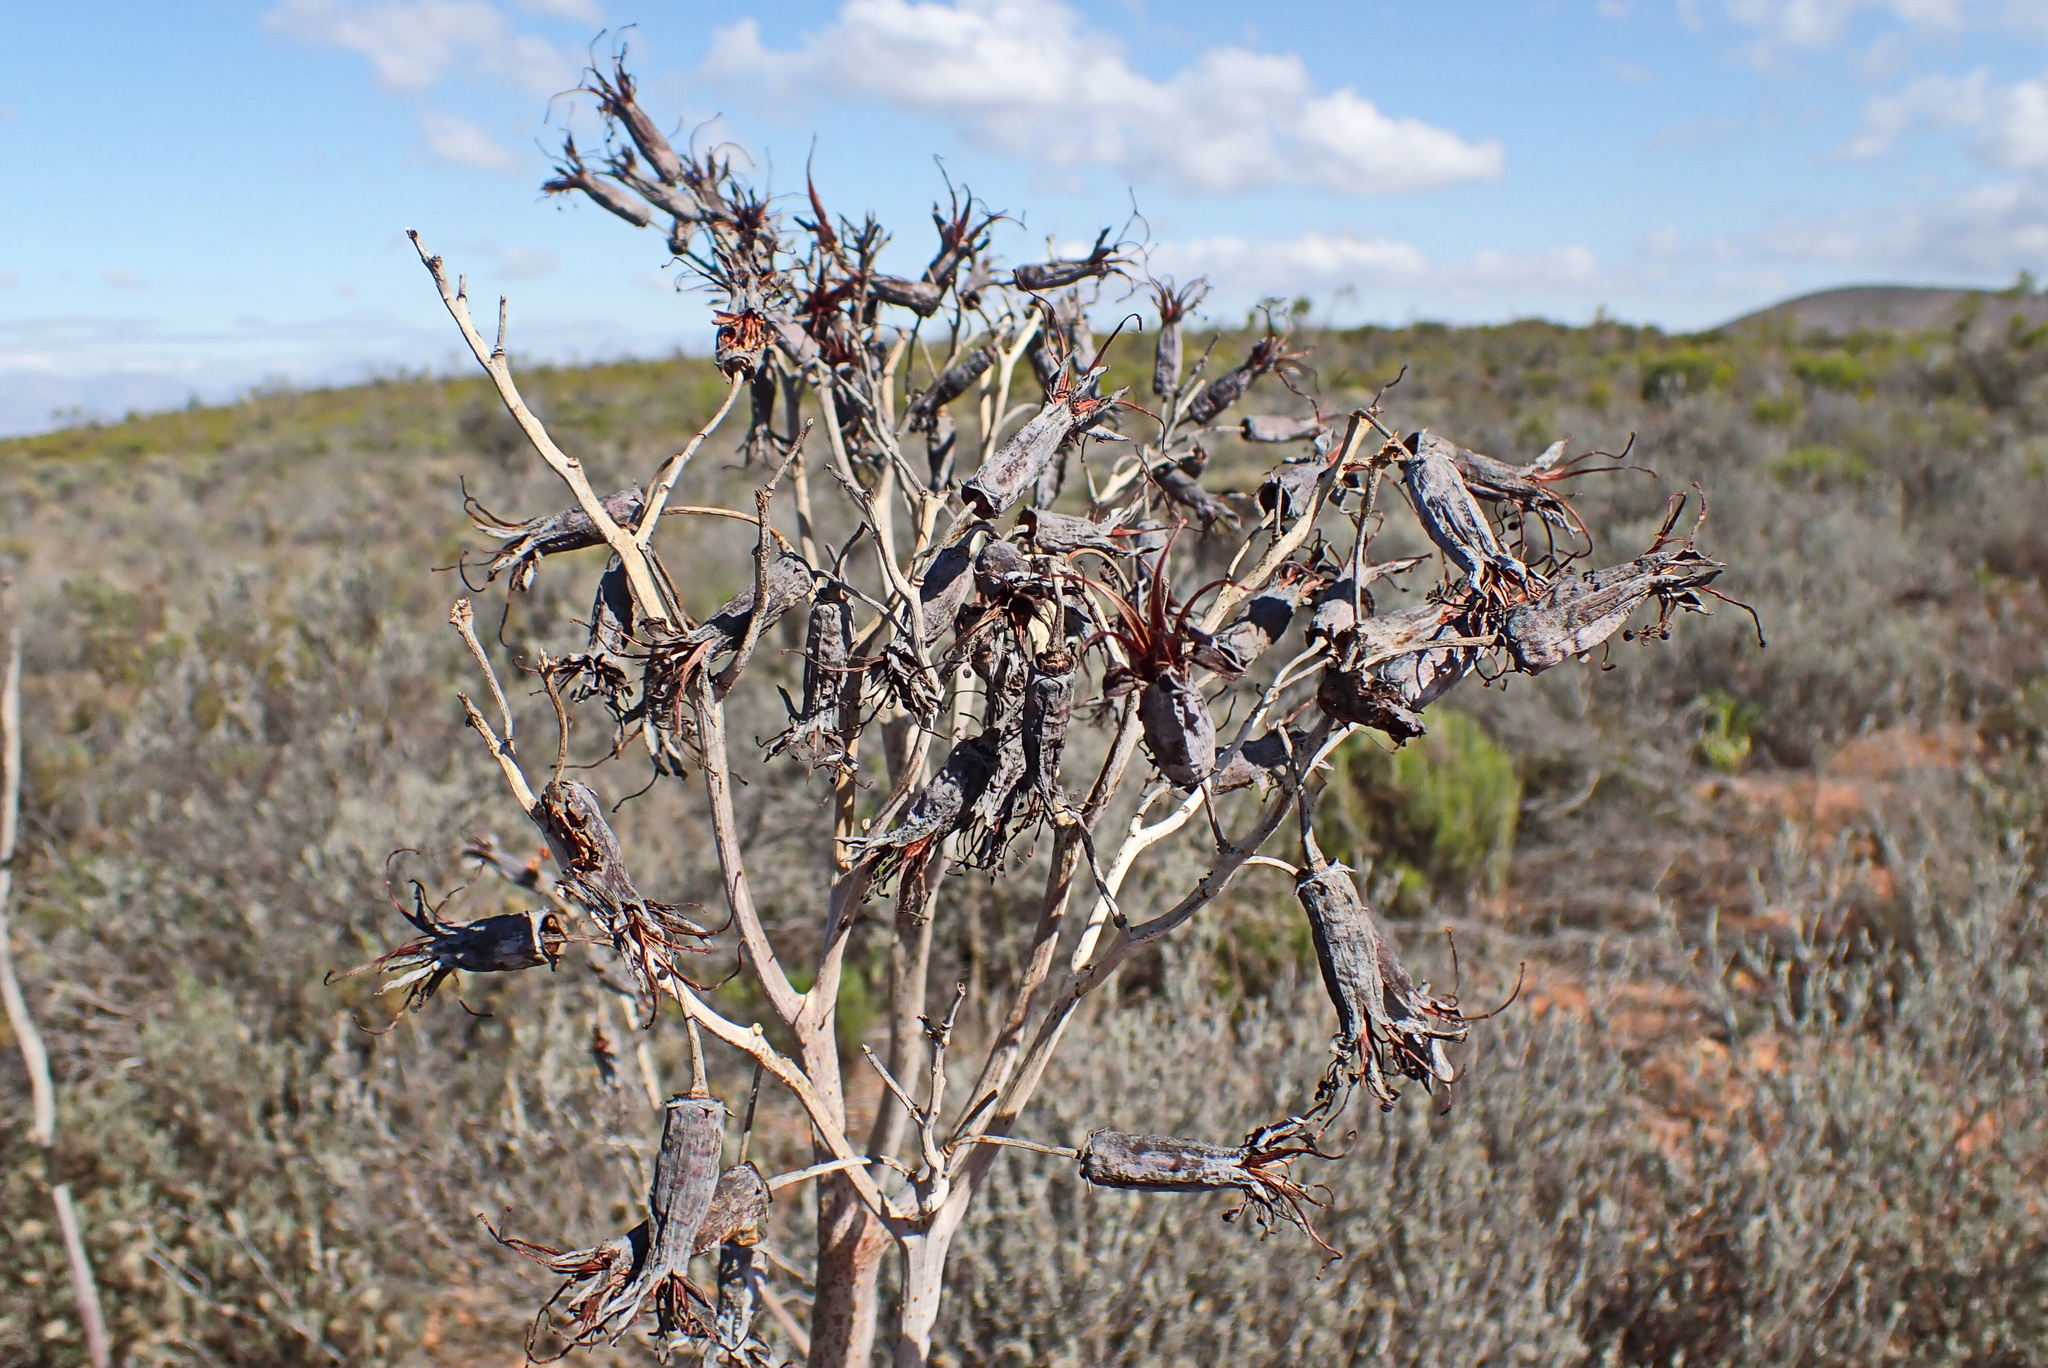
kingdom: Plantae
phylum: Tracheophyta
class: Magnoliopsida
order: Saxifragales
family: Crassulaceae
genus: Cotyledon
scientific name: Cotyledon orbiculata
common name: Pig's ear
